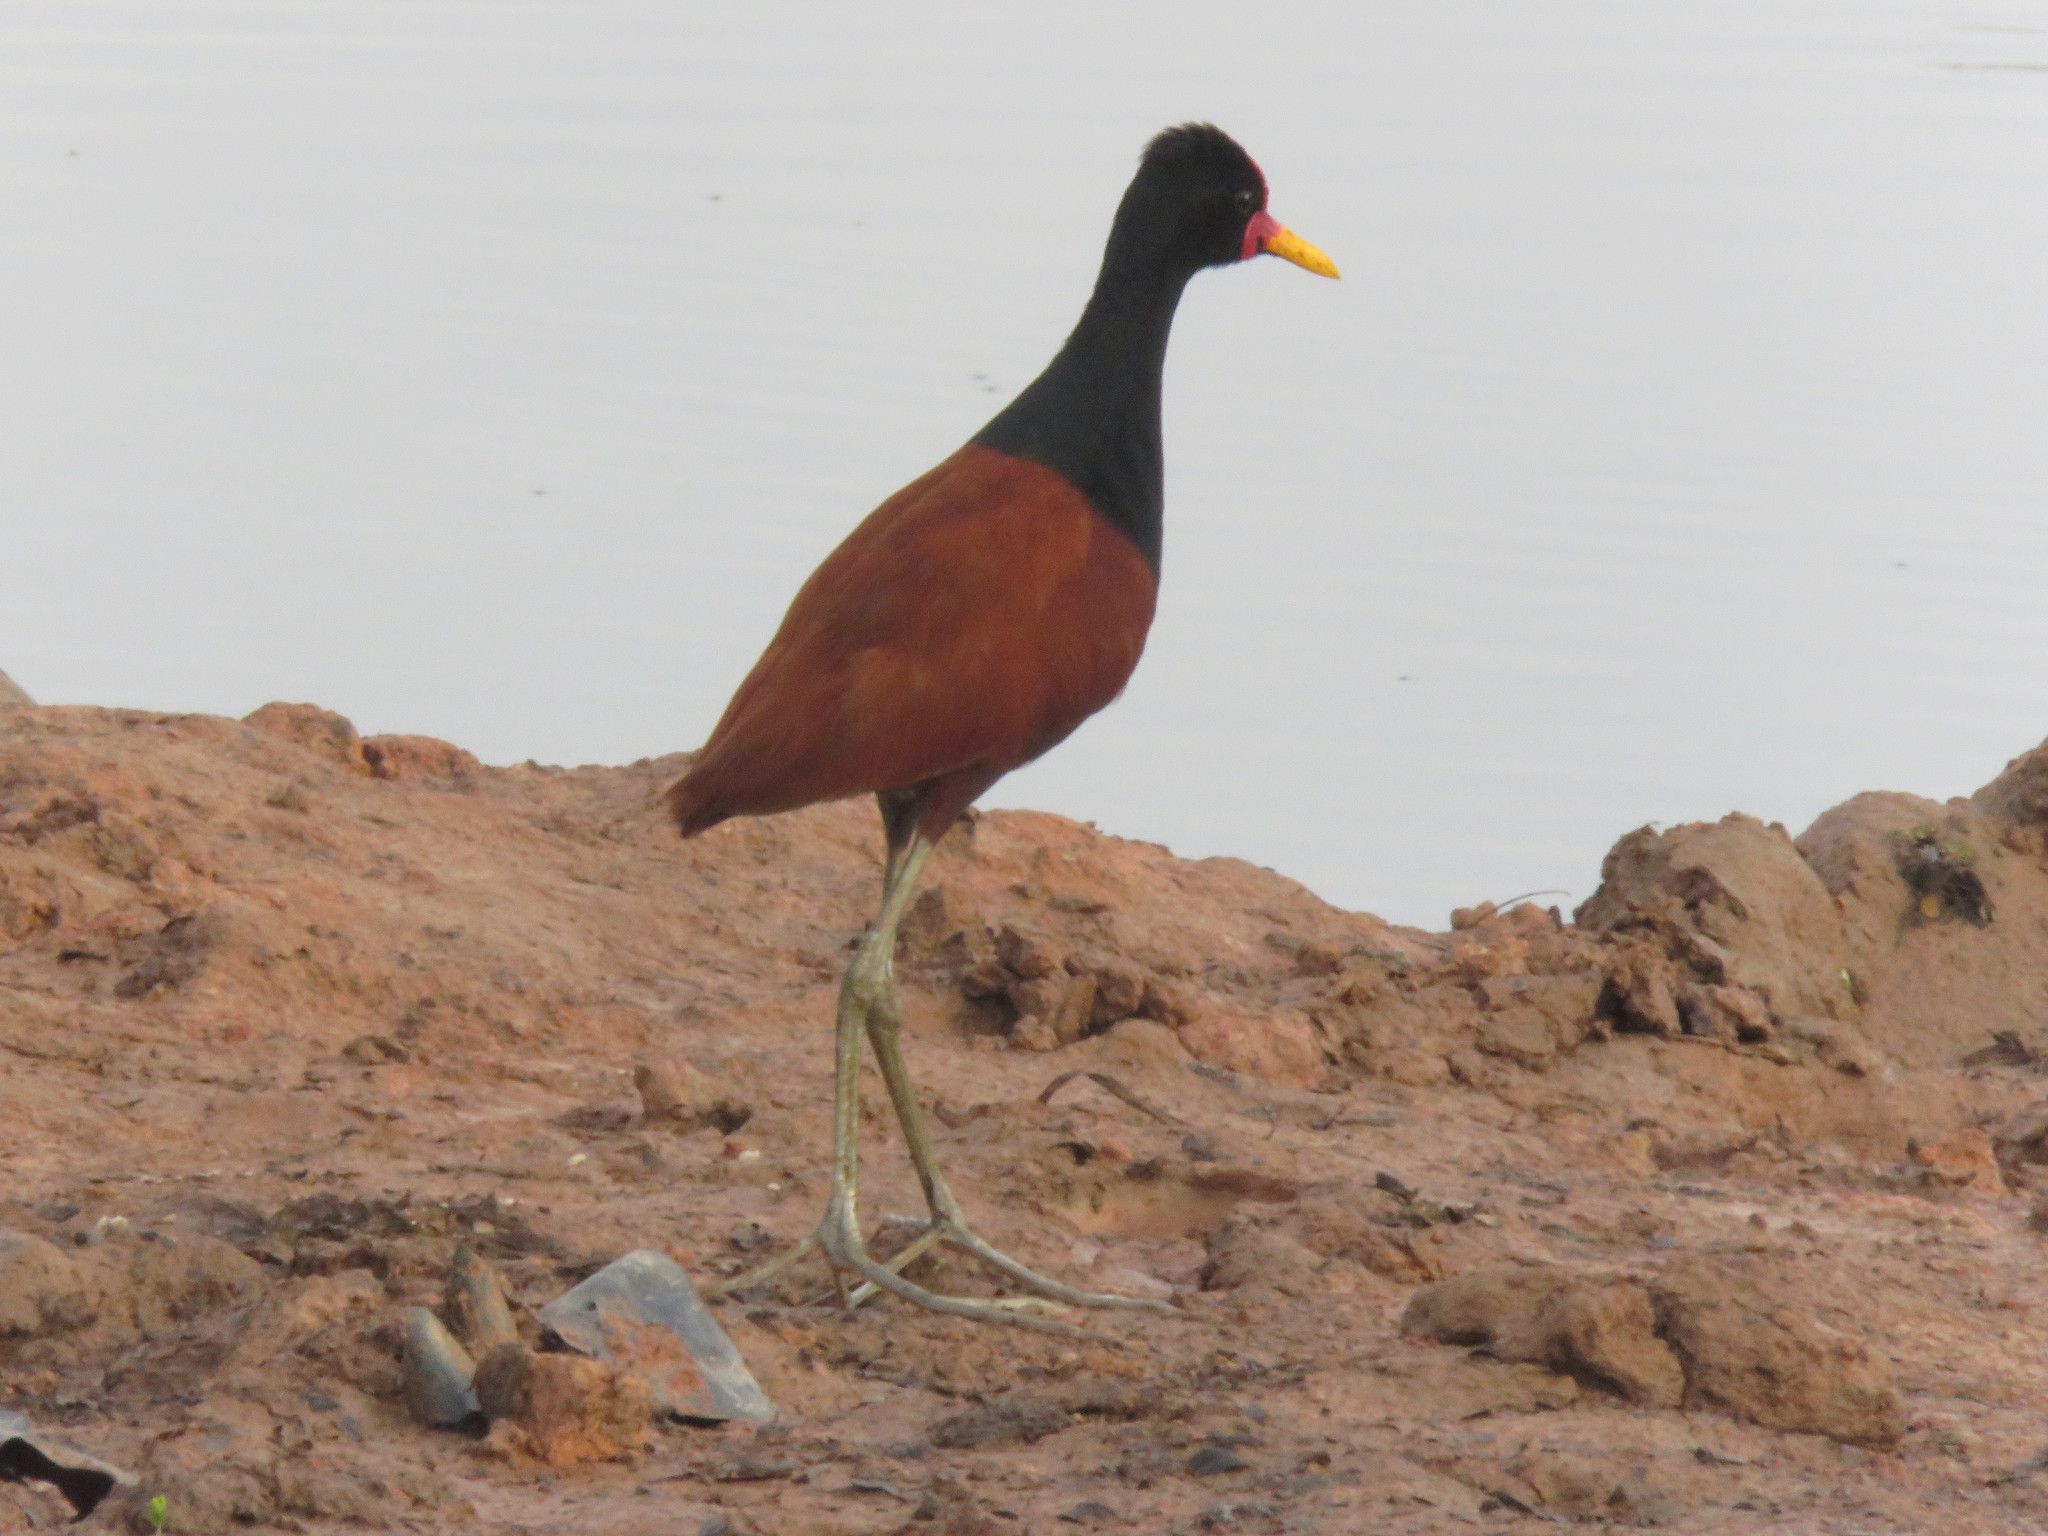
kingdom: Animalia
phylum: Chordata
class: Aves
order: Charadriiformes
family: Jacanidae
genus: Jacana
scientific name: Jacana jacana
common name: Wattled jacana
